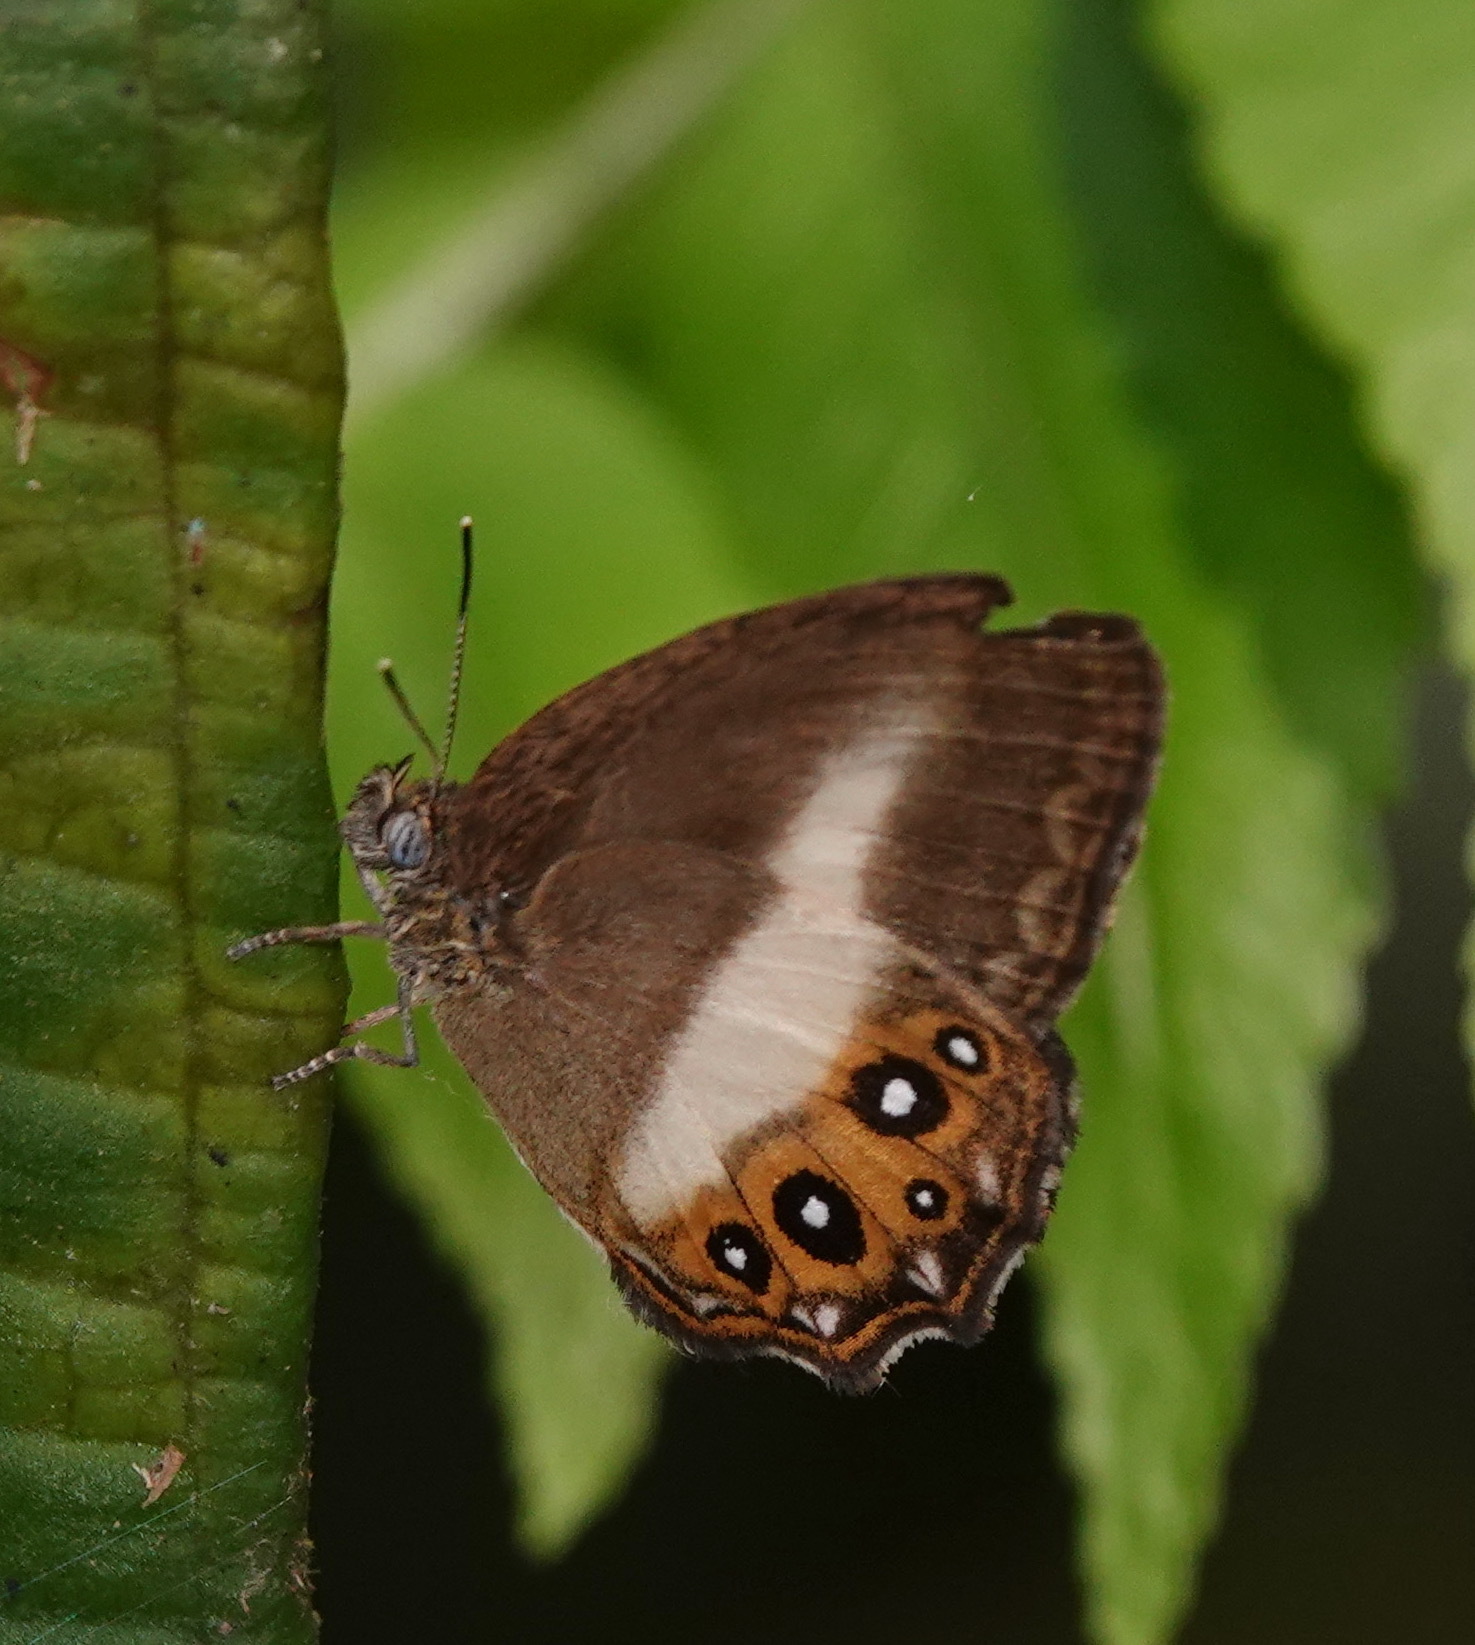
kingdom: Animalia
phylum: Arthropoda
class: Insecta
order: Lepidoptera
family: Nymphalidae
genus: Saurona
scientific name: Saurona
